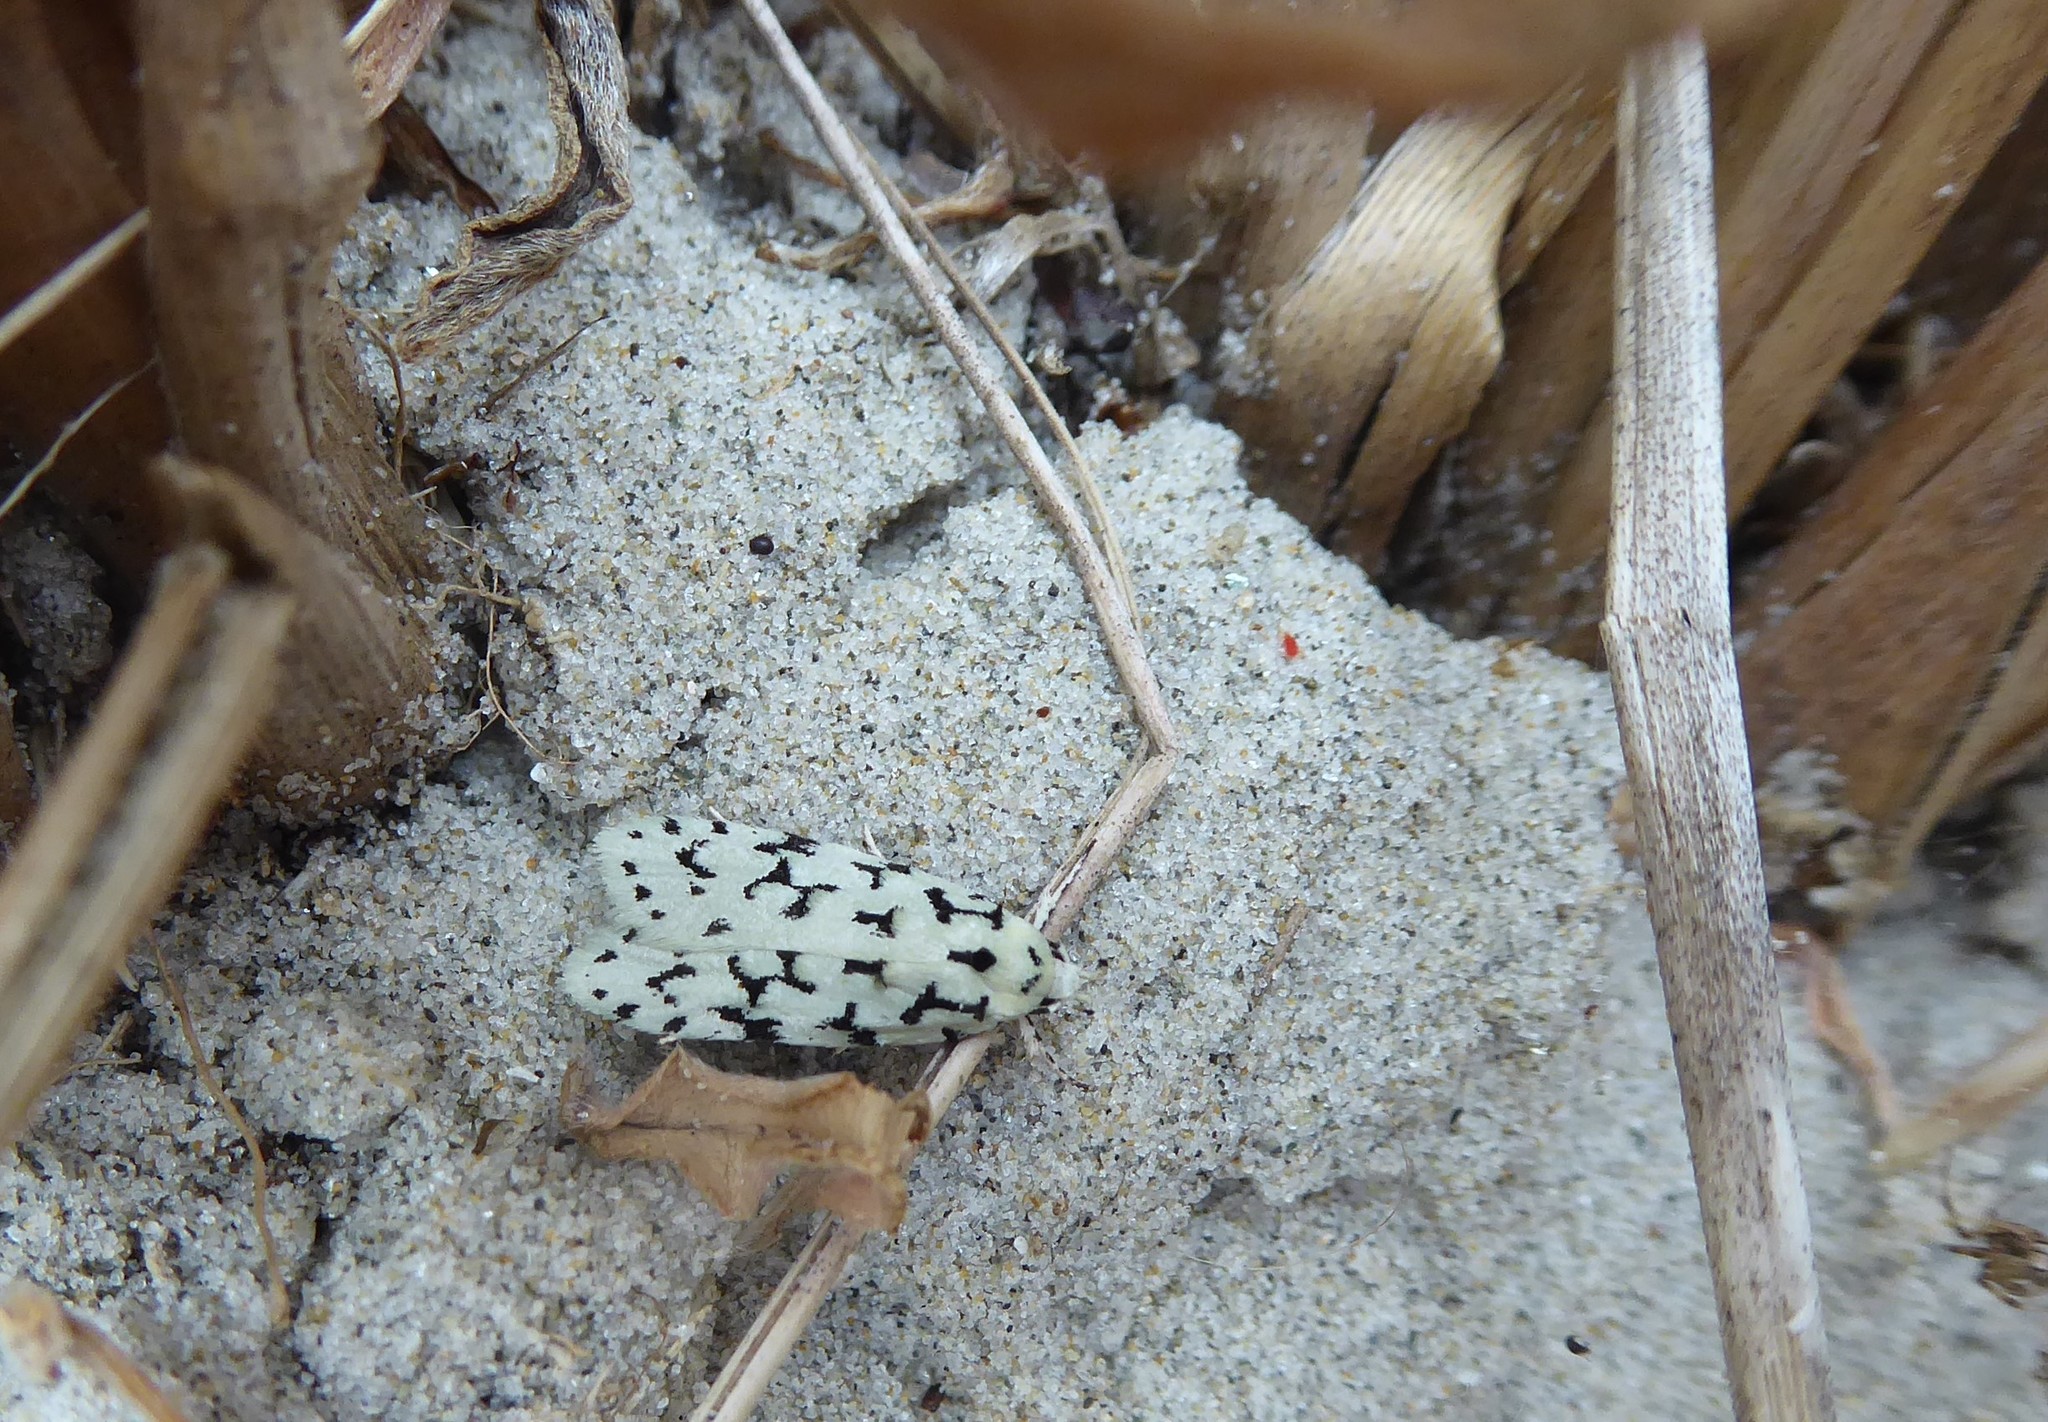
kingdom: Animalia
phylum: Arthropoda
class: Insecta
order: Lepidoptera
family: Oecophoridae
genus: Izatha
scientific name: Izatha huttoni
